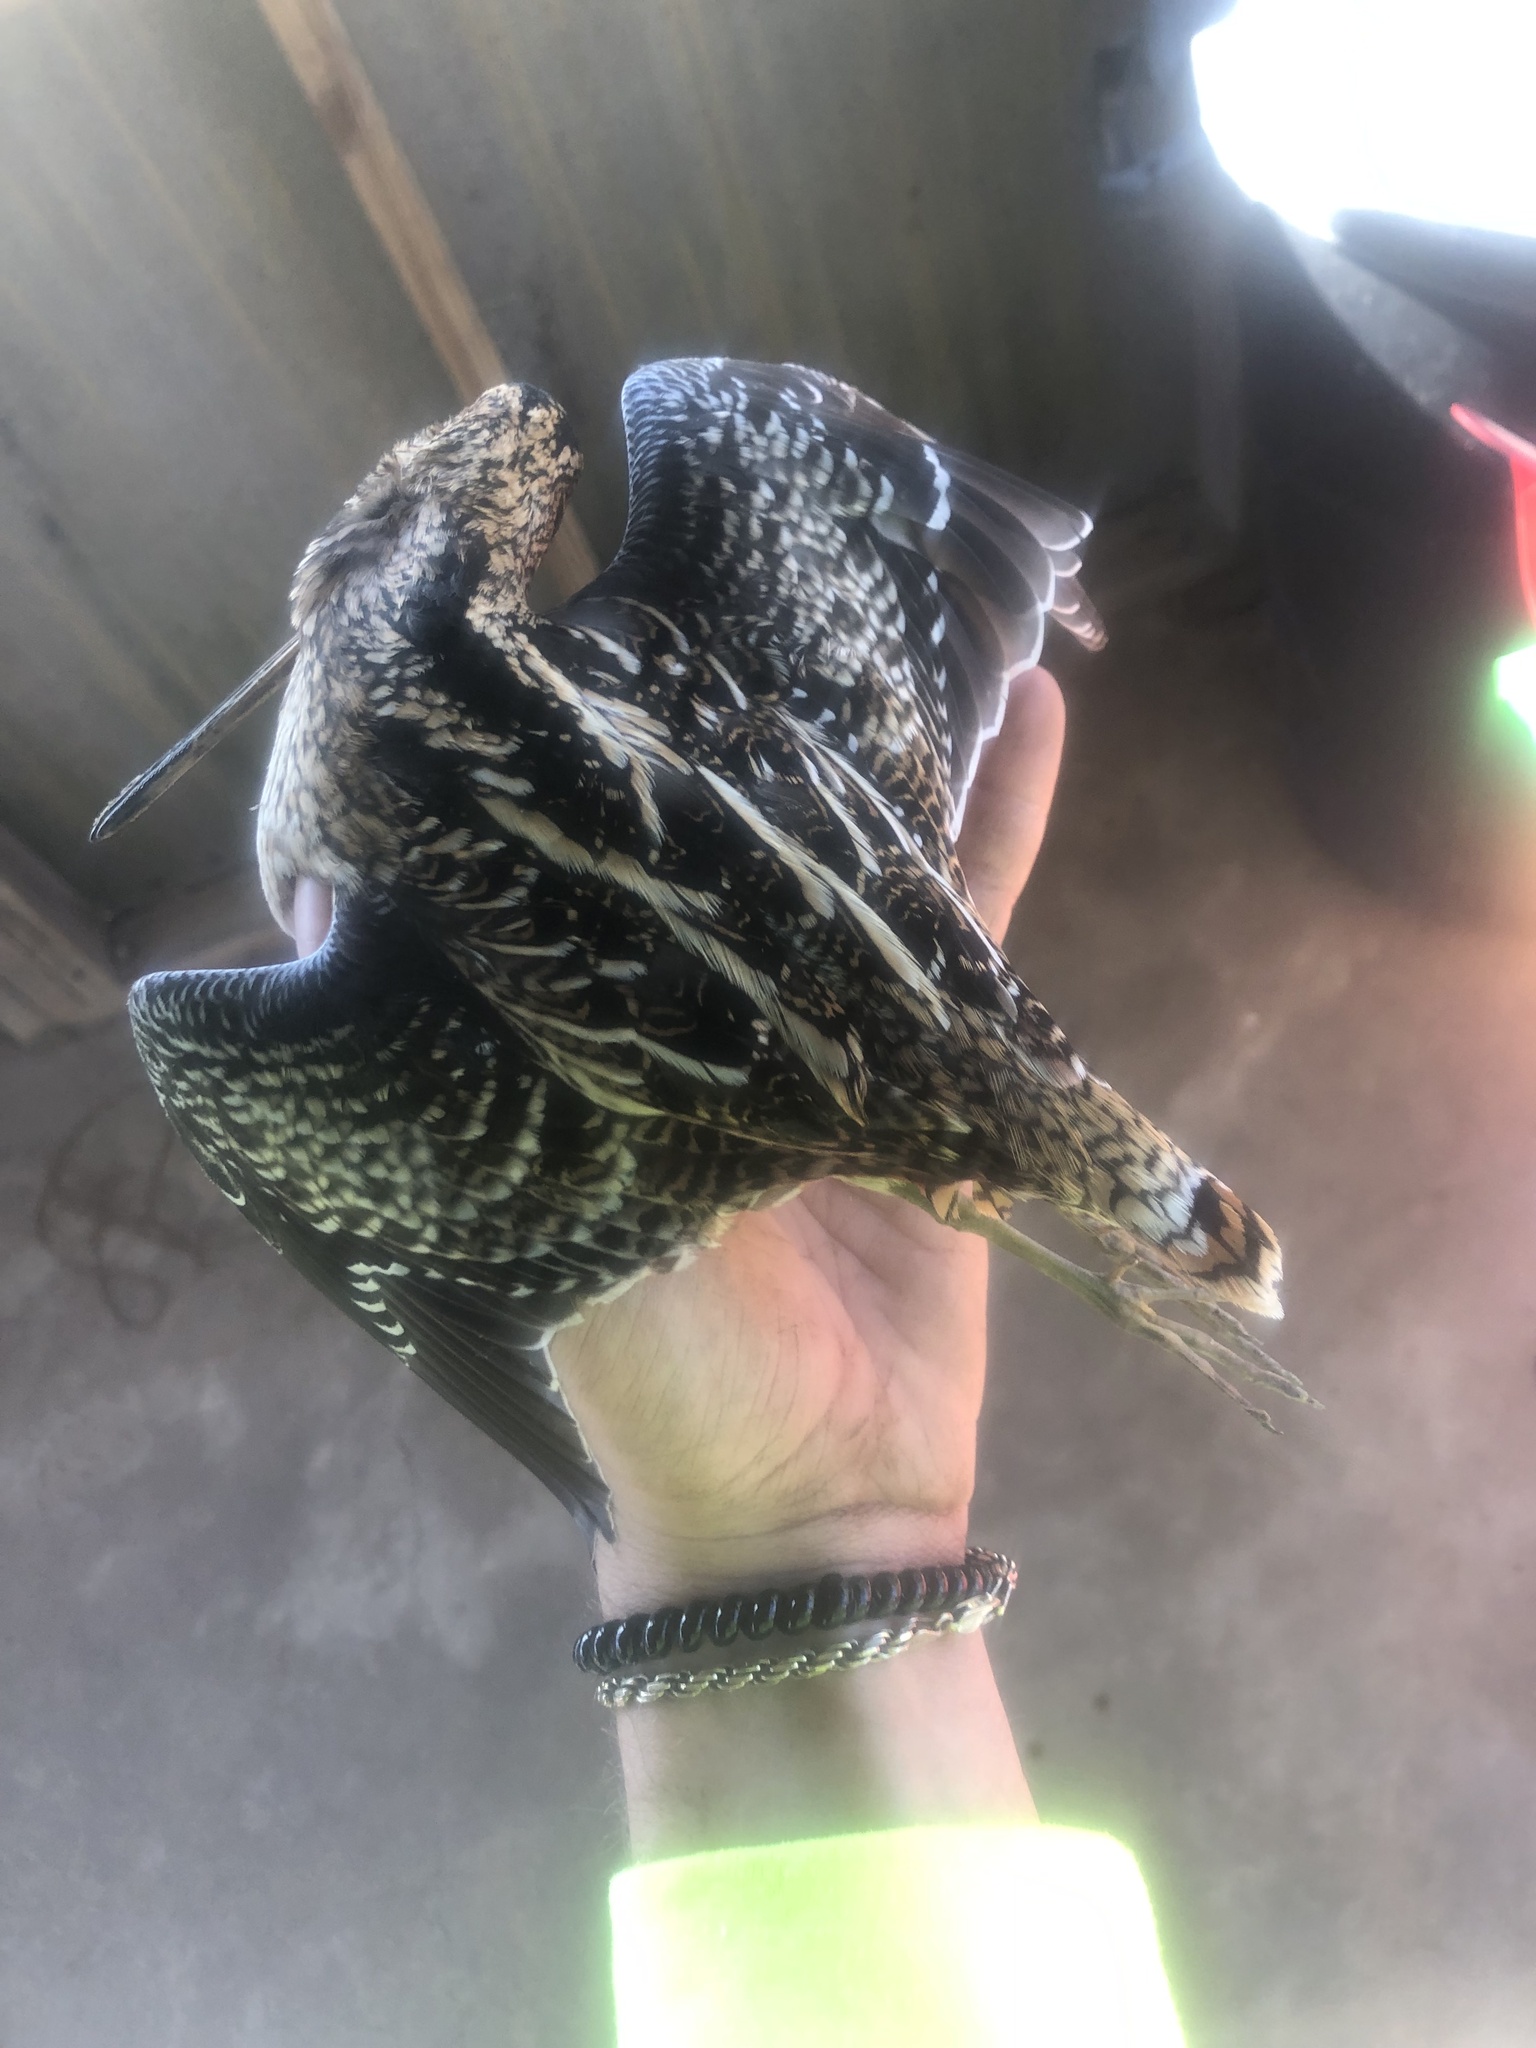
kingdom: Animalia
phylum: Chordata
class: Aves
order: Charadriiformes
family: Scolopacidae
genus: Gallinago
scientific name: Gallinago delicata
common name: Wilson's snipe
